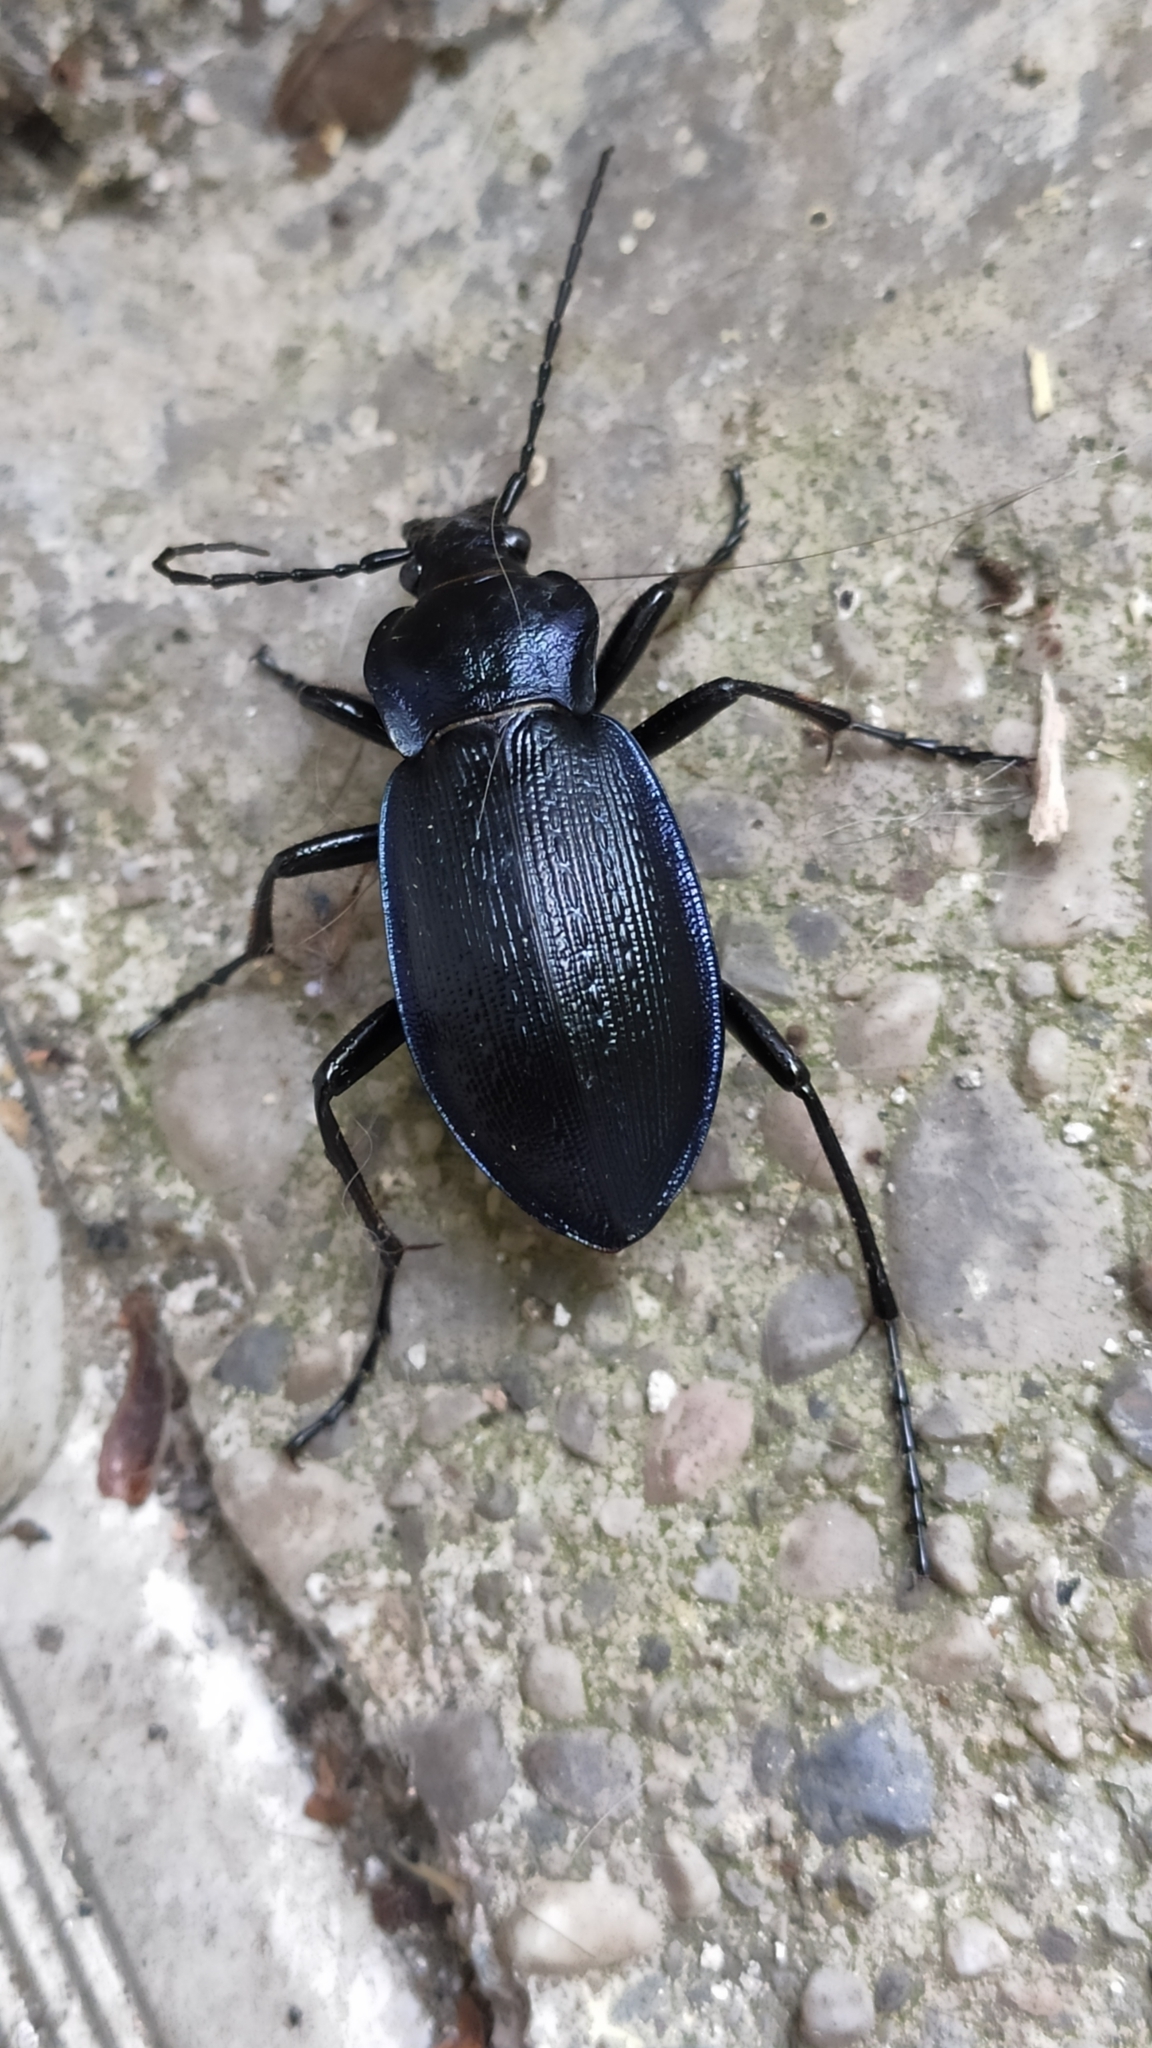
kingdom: Animalia
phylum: Arthropoda
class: Insecta
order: Coleoptera
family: Carabidae
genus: Carabus
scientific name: Carabus catenulatus
